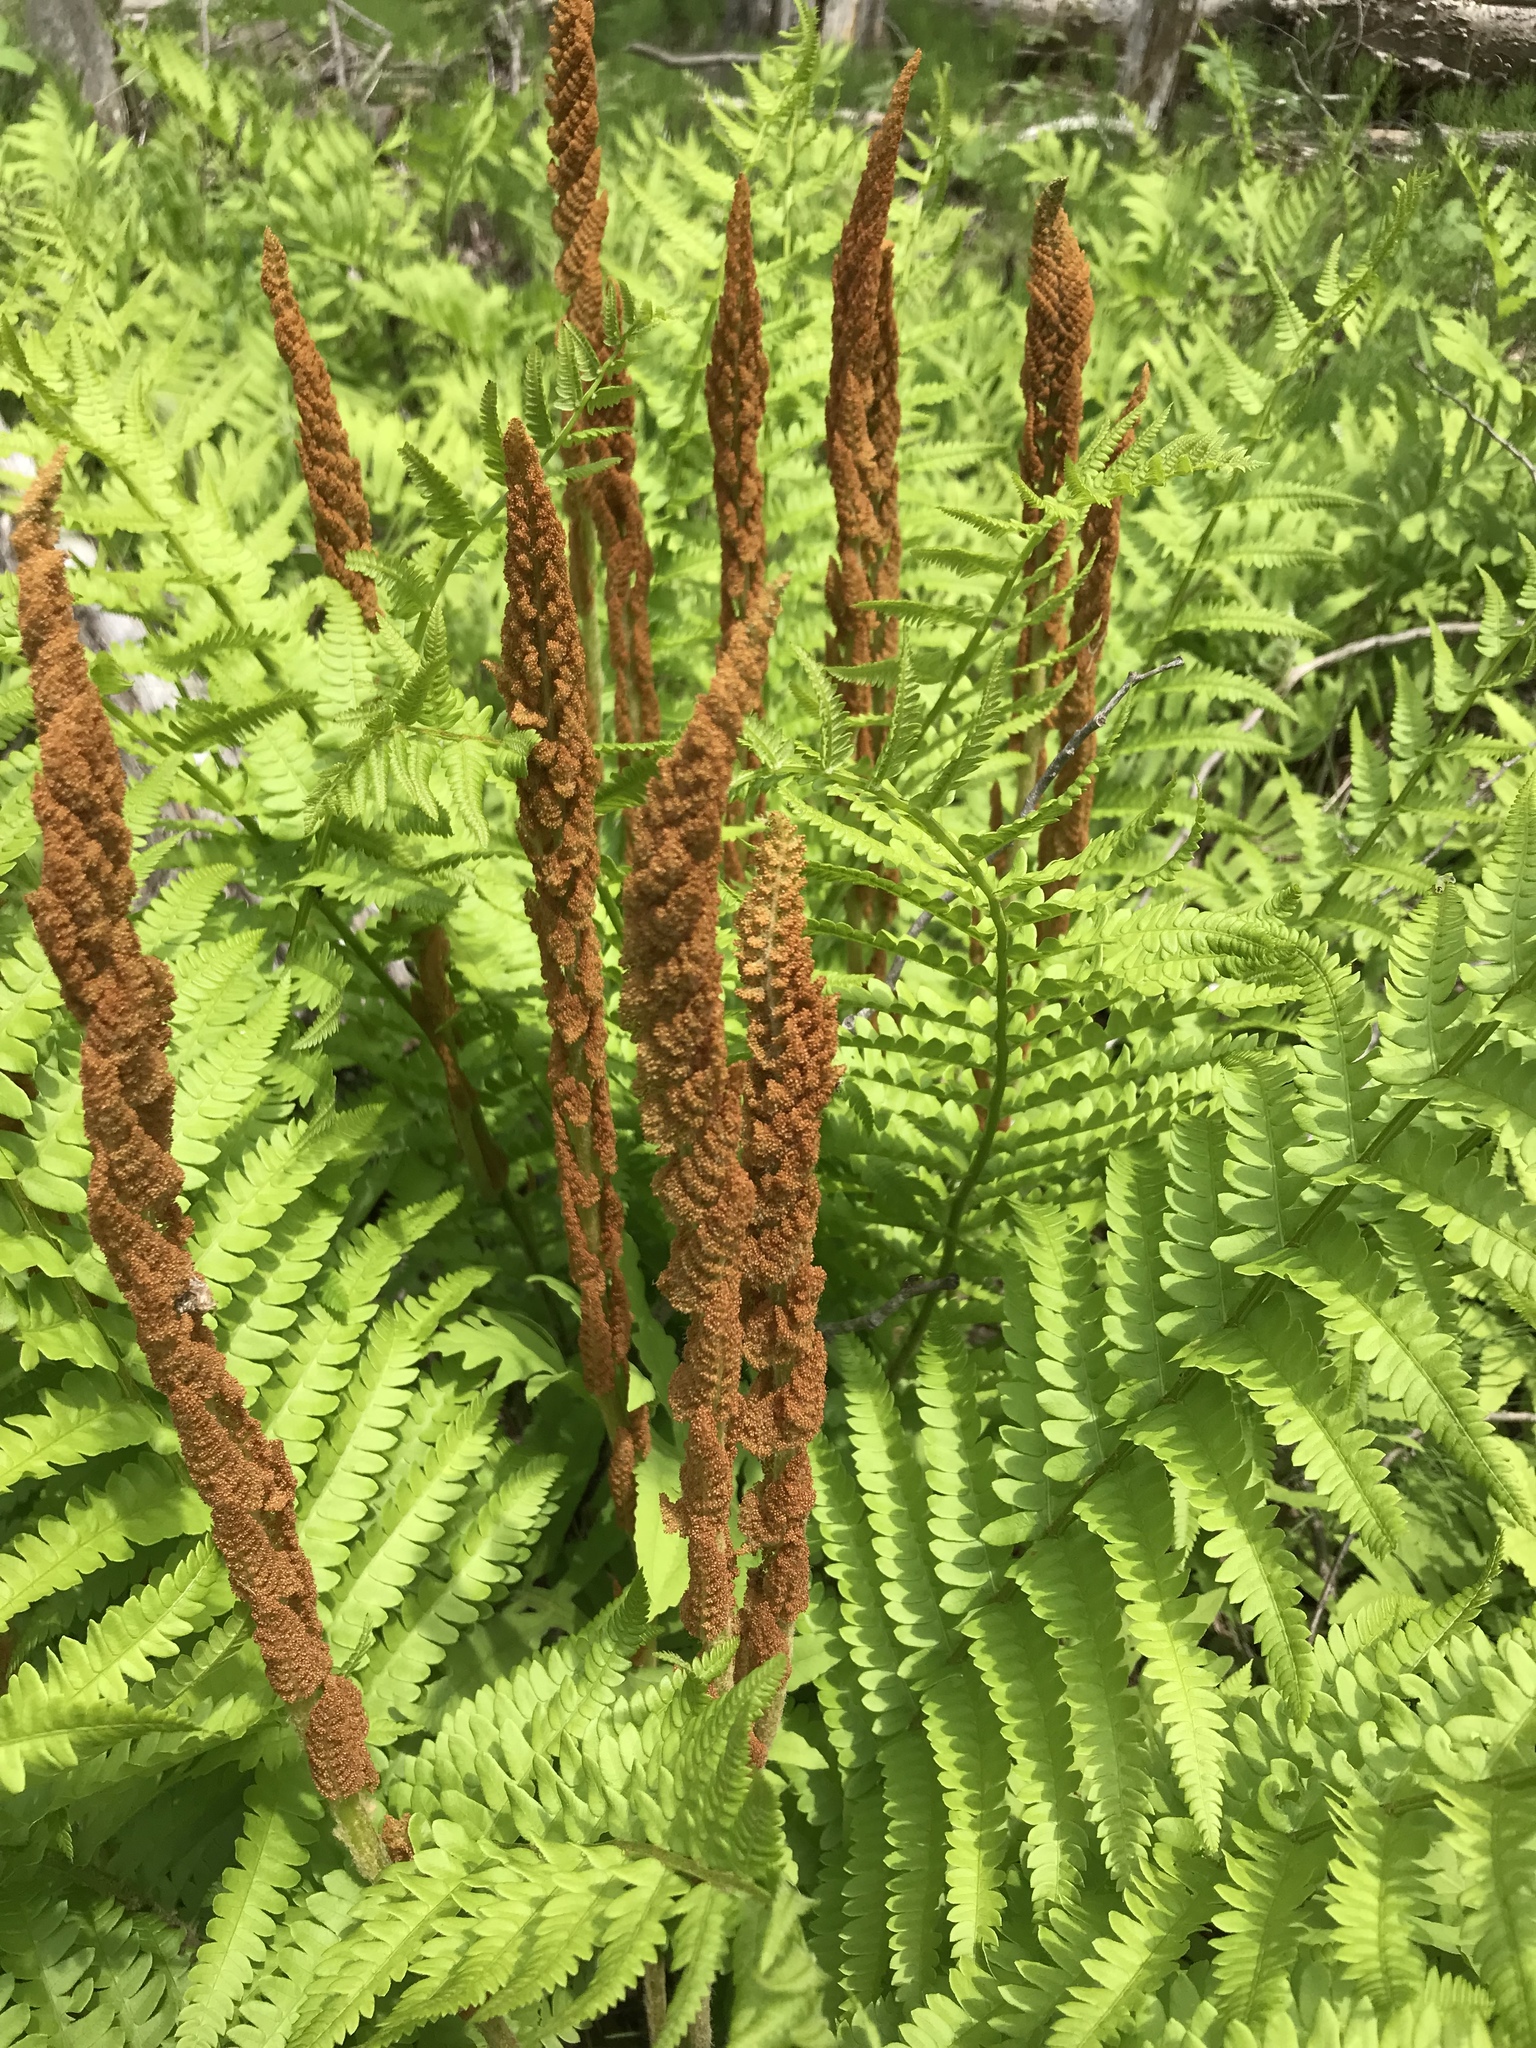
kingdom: Plantae
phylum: Tracheophyta
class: Polypodiopsida
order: Osmundales
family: Osmundaceae
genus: Osmundastrum
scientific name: Osmundastrum cinnamomeum
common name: Cinnamon fern
